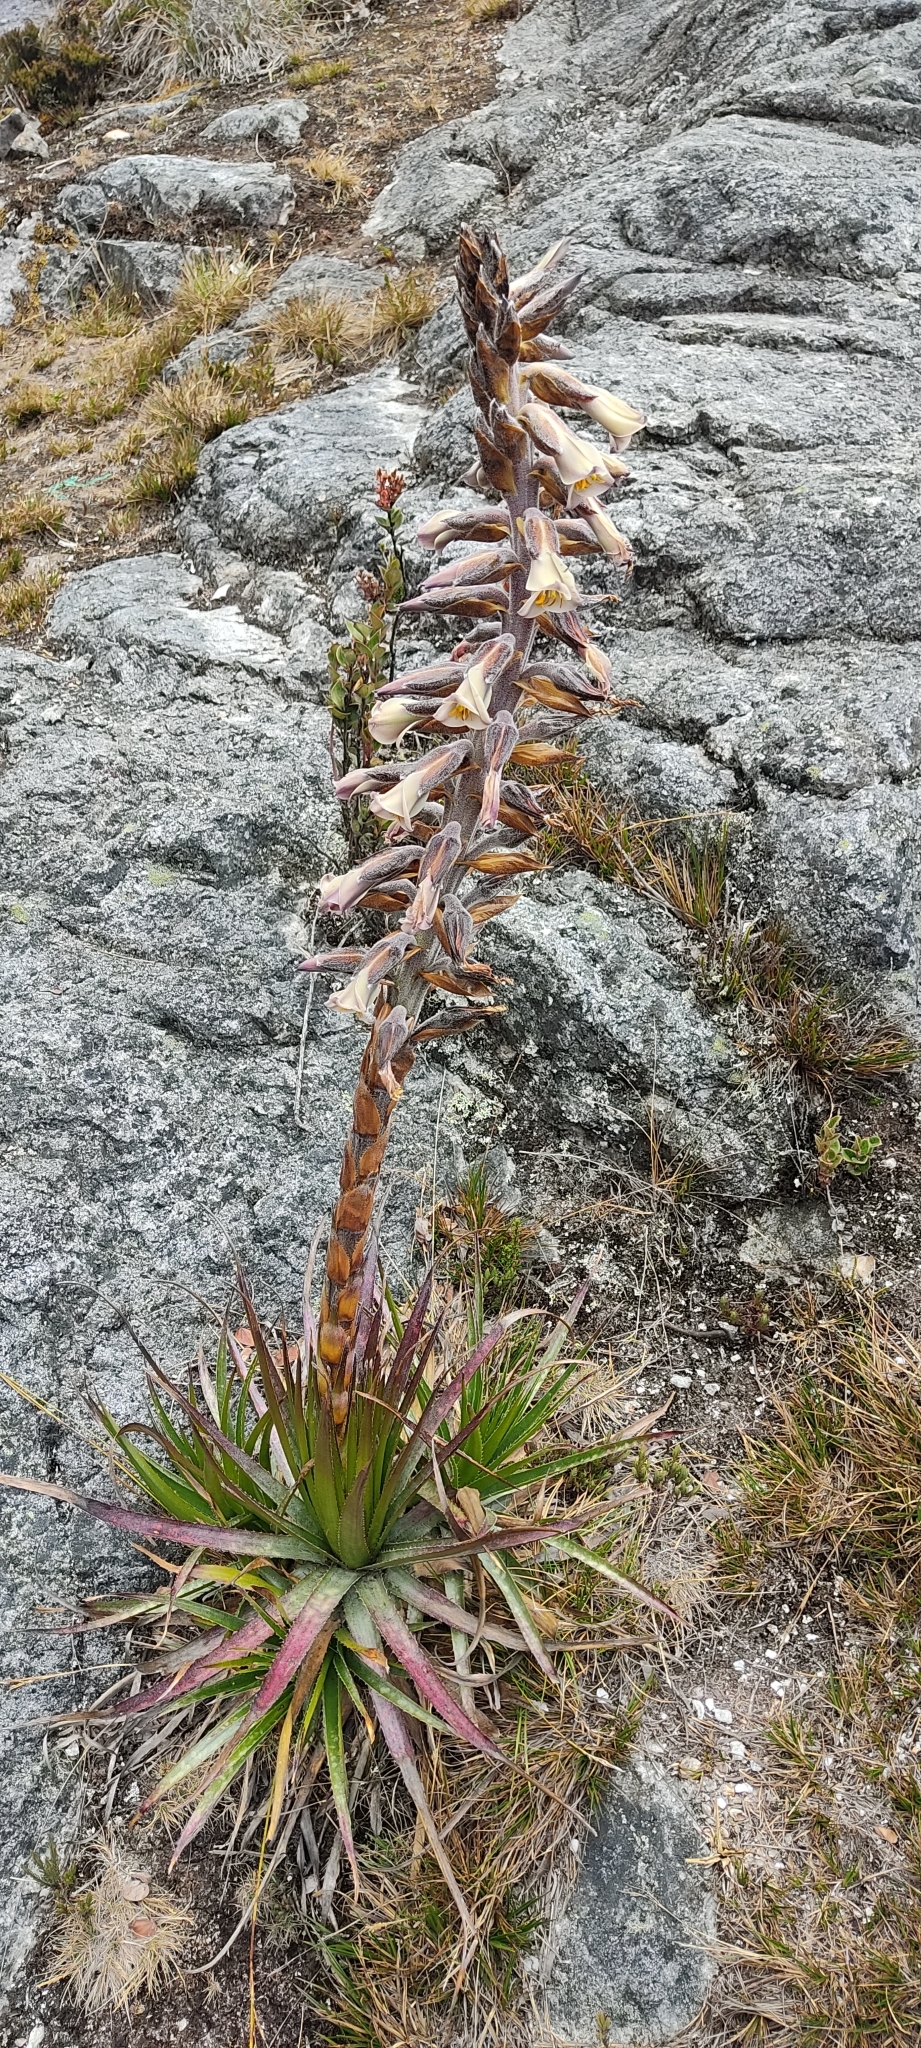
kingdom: Plantae
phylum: Tracheophyta
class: Liliopsida
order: Poales
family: Bromeliaceae
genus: Puya
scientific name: Puya nitida
